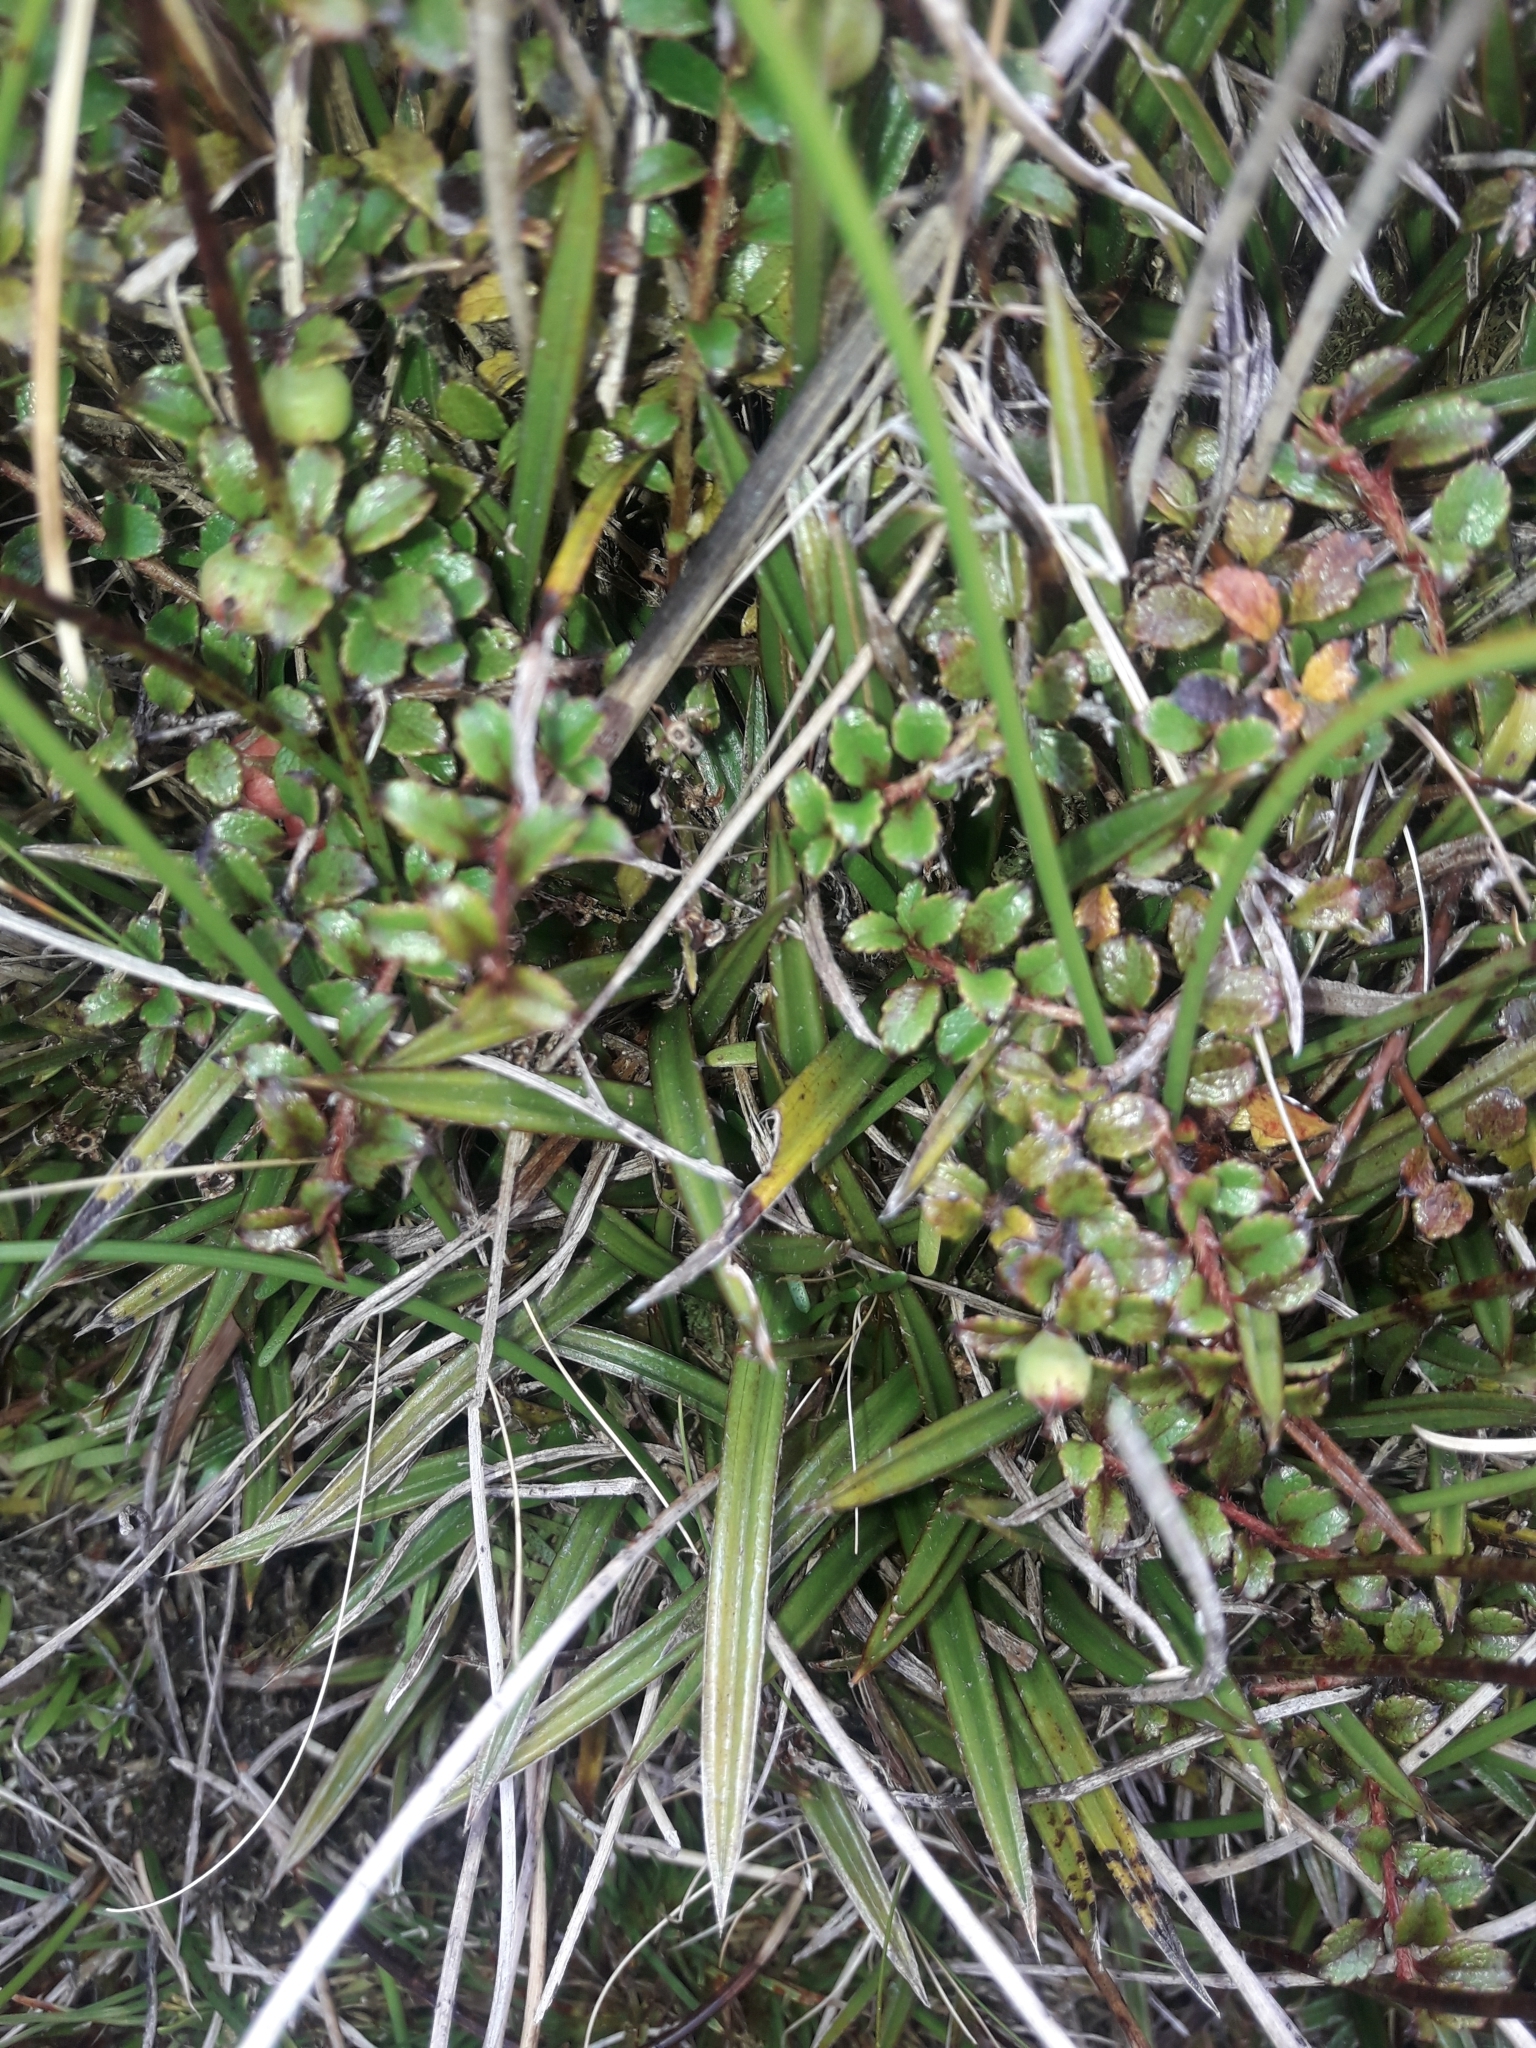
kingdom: Plantae
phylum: Tracheophyta
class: Liliopsida
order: Asparagales
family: Asteliaceae
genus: Astelia
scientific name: Astelia linearis
